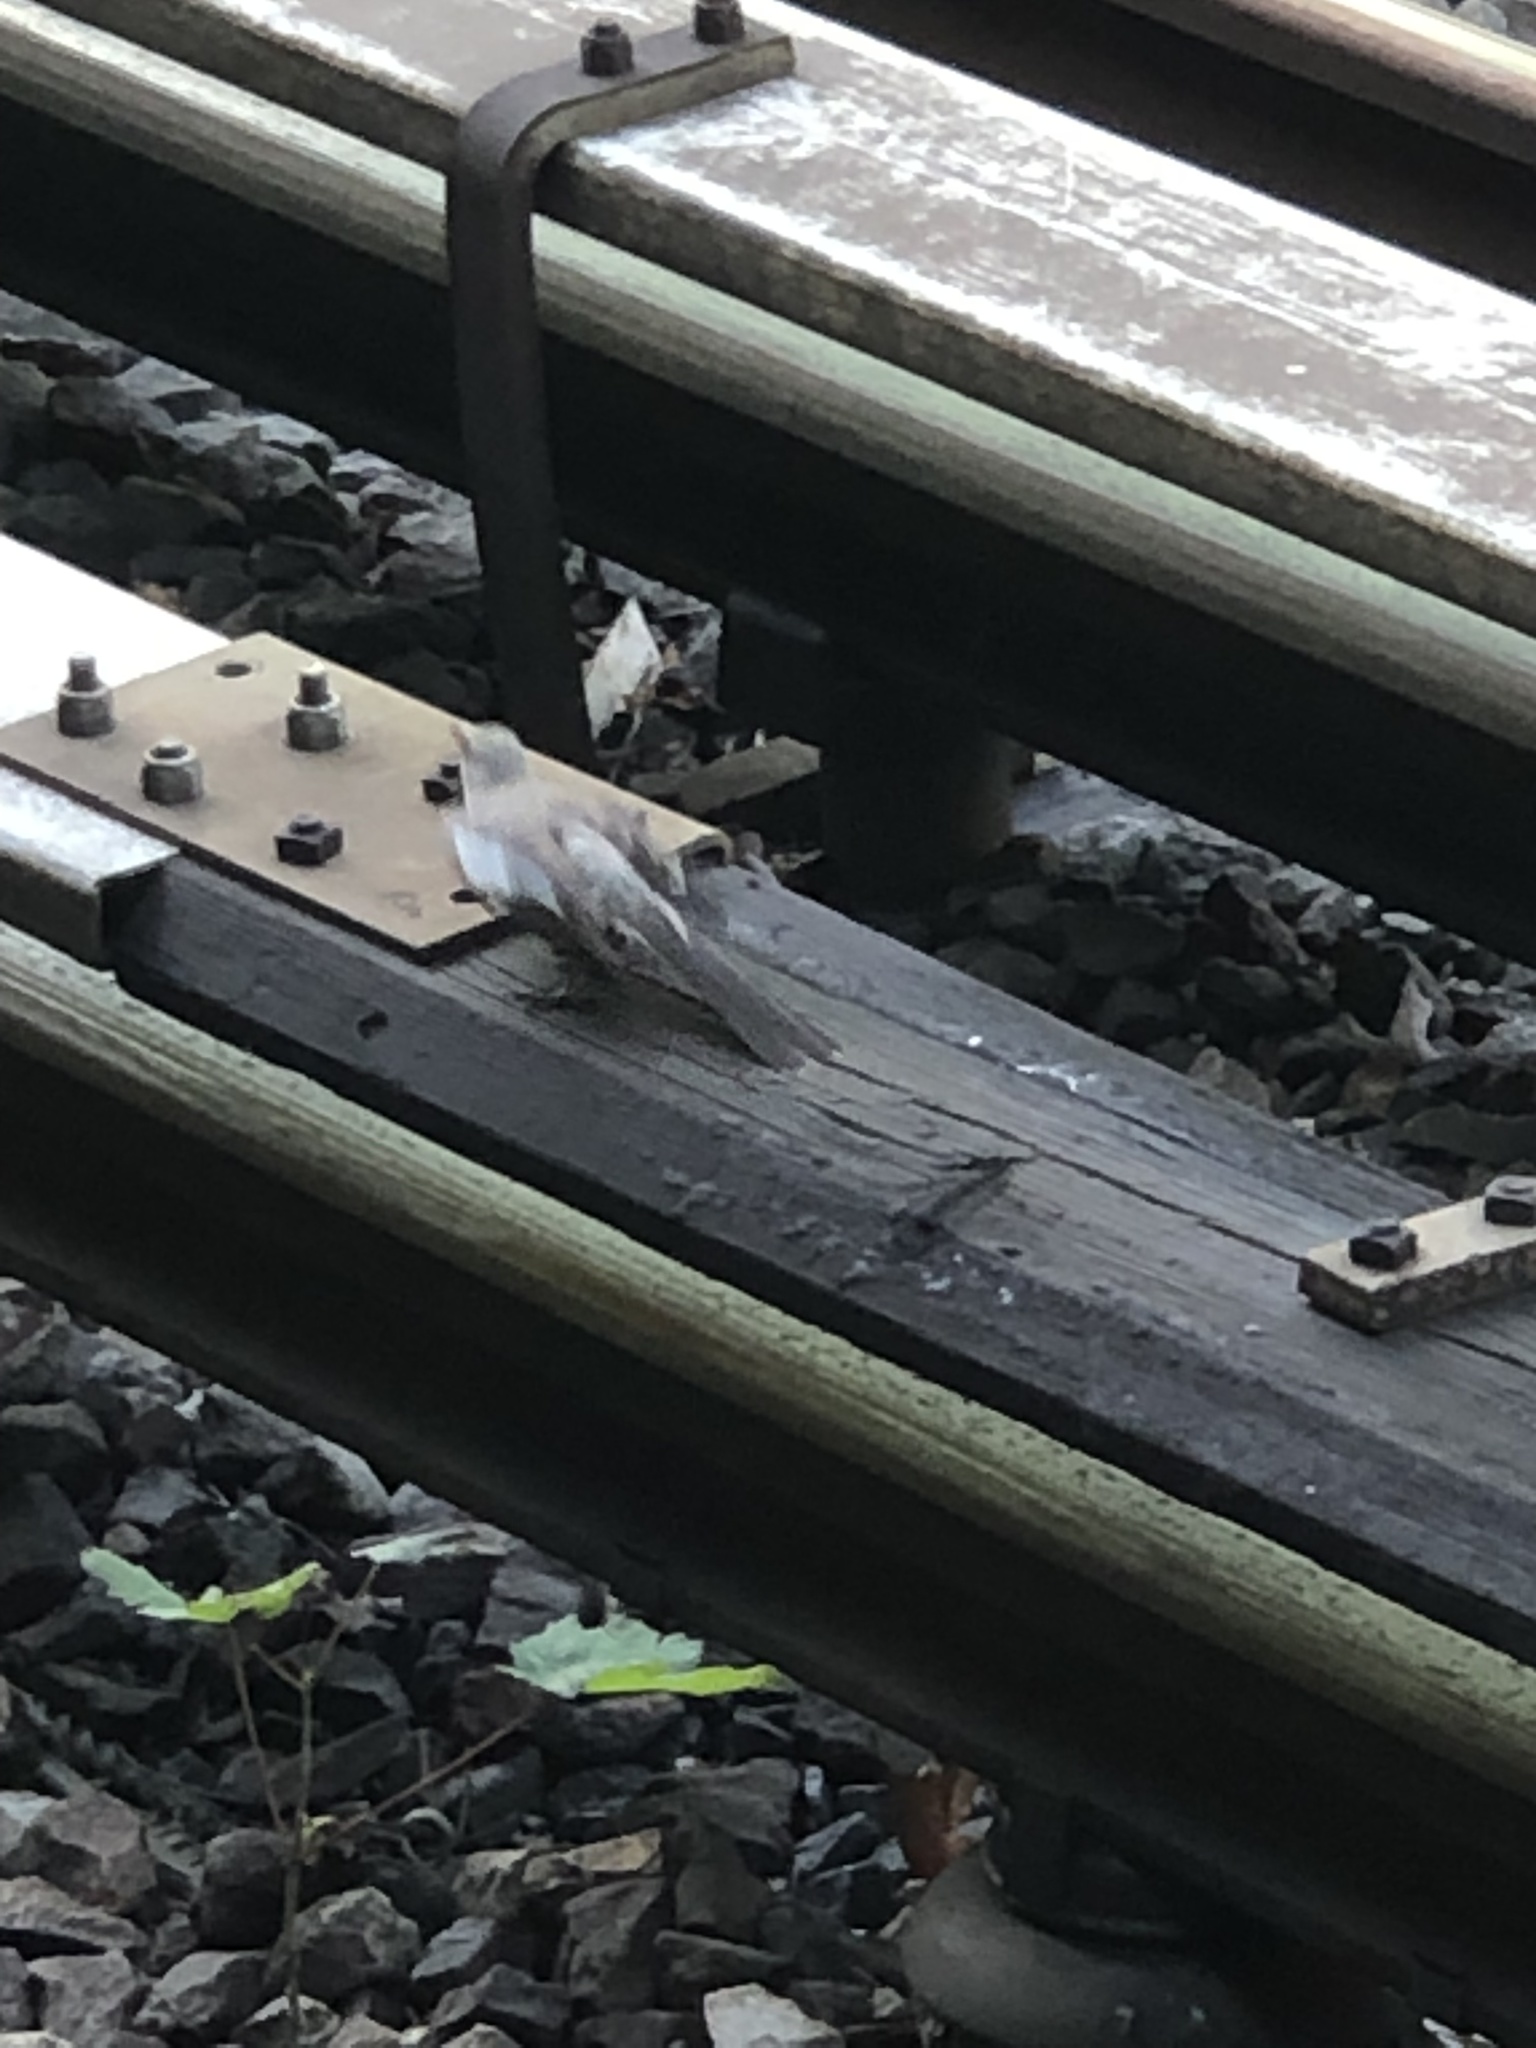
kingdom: Animalia
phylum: Chordata
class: Aves
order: Passeriformes
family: Mimidae
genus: Mimus
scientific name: Mimus polyglottos
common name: Northern mockingbird
